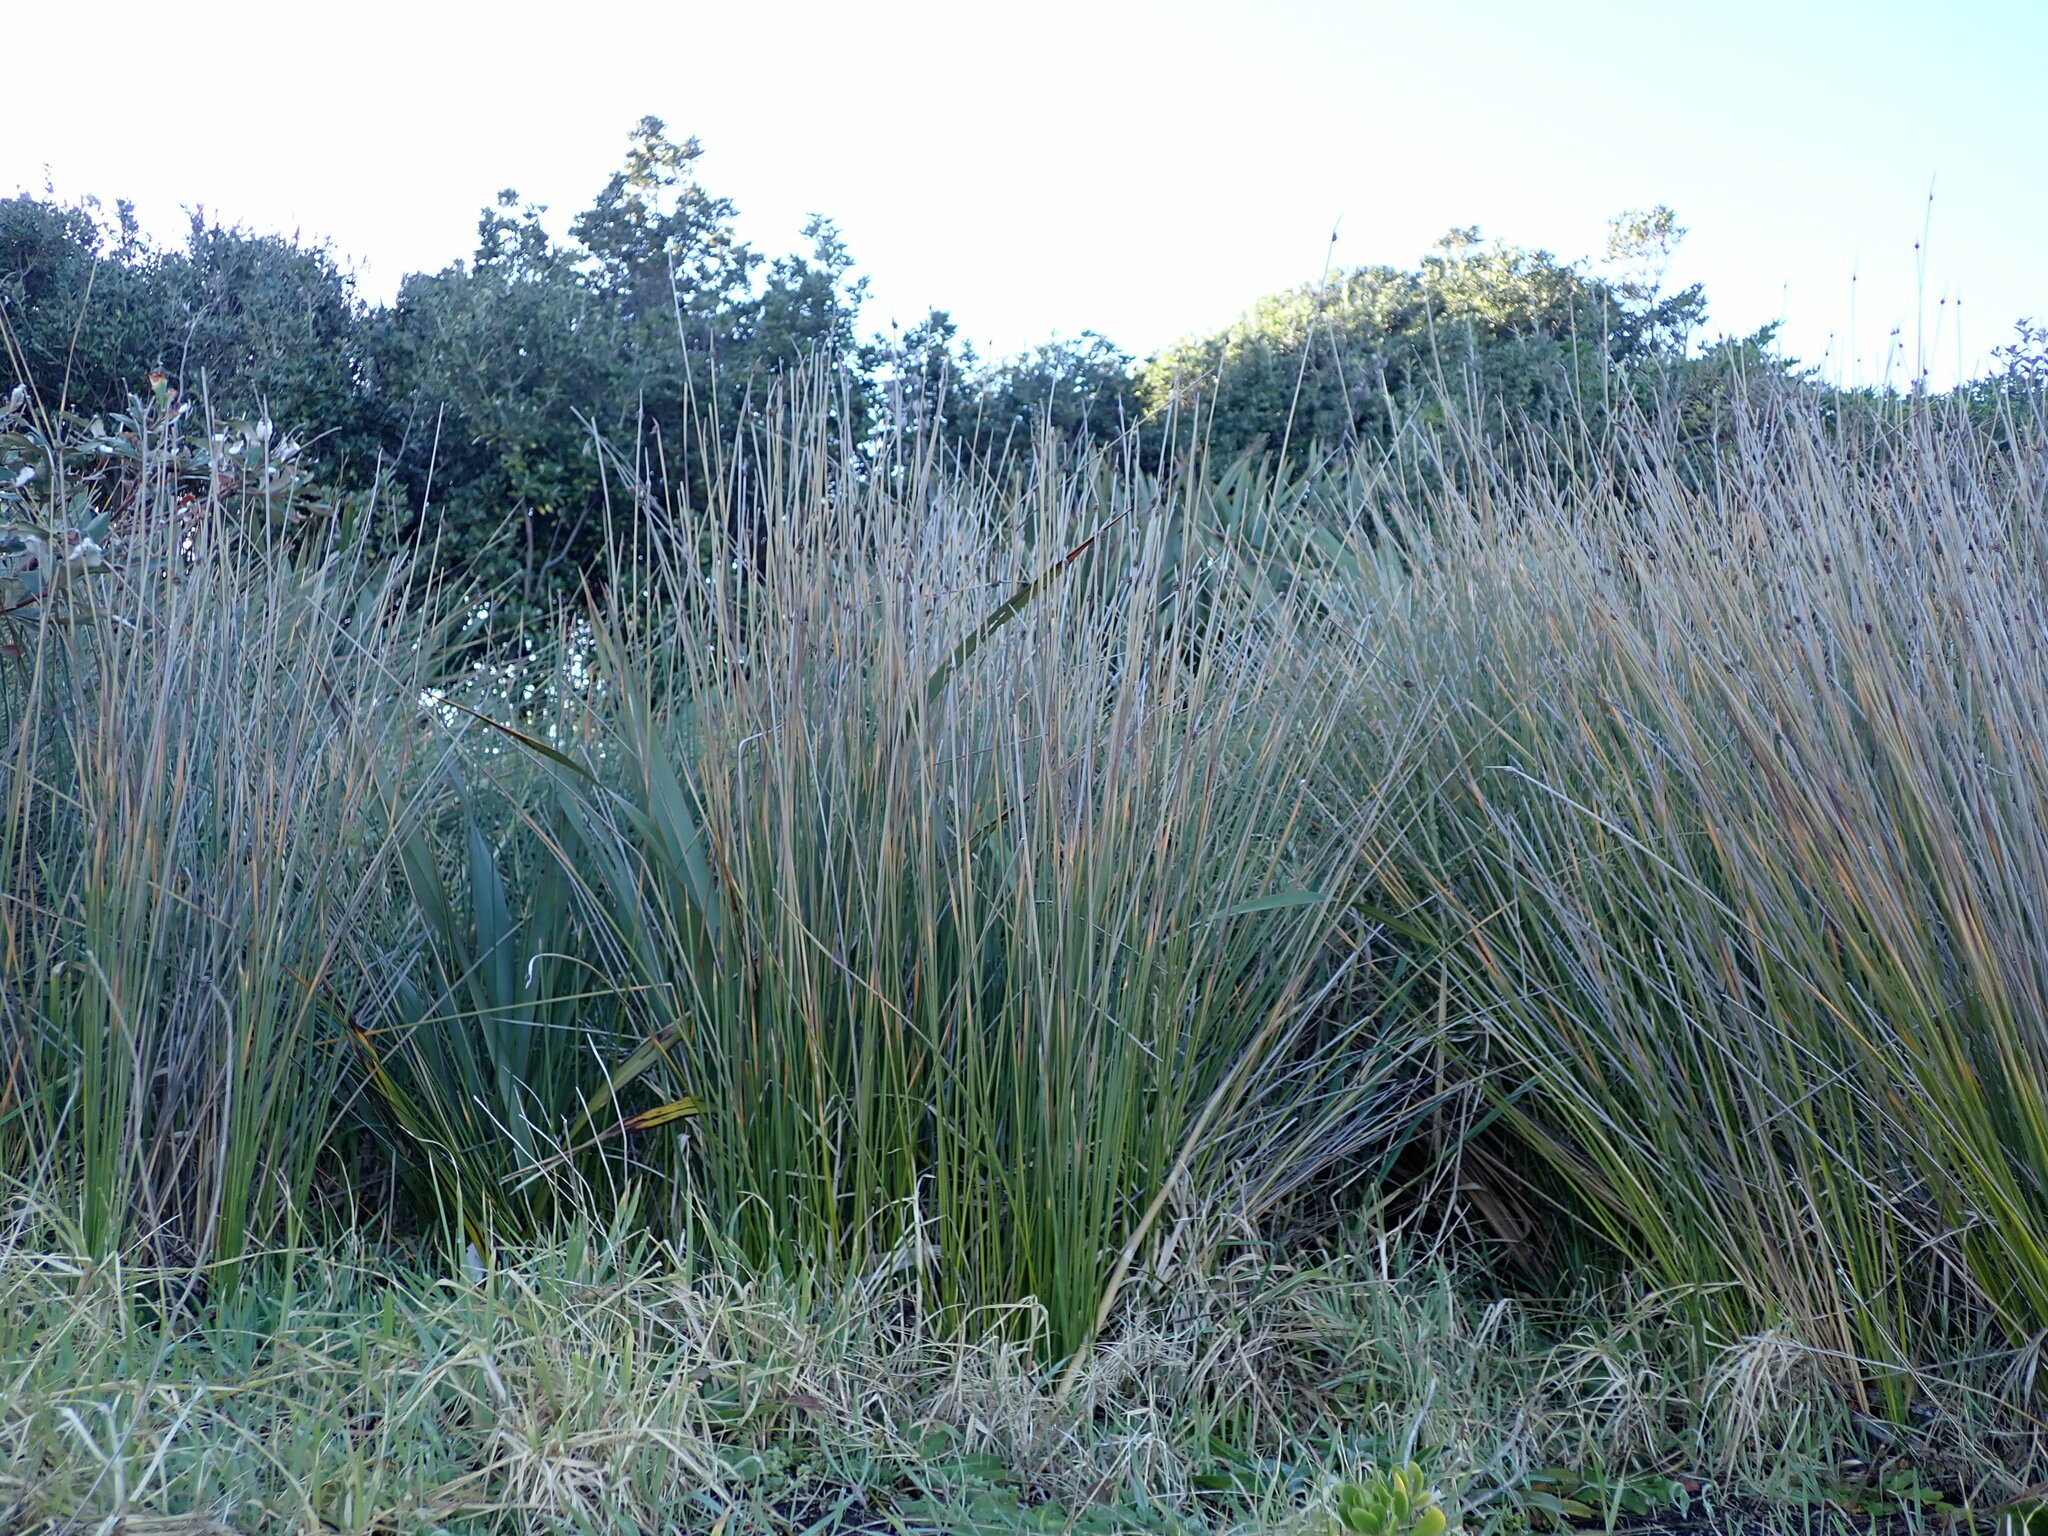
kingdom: Plantae
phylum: Tracheophyta
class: Liliopsida
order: Poales
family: Cyperaceae
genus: Ficinia
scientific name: Ficinia nodosa
